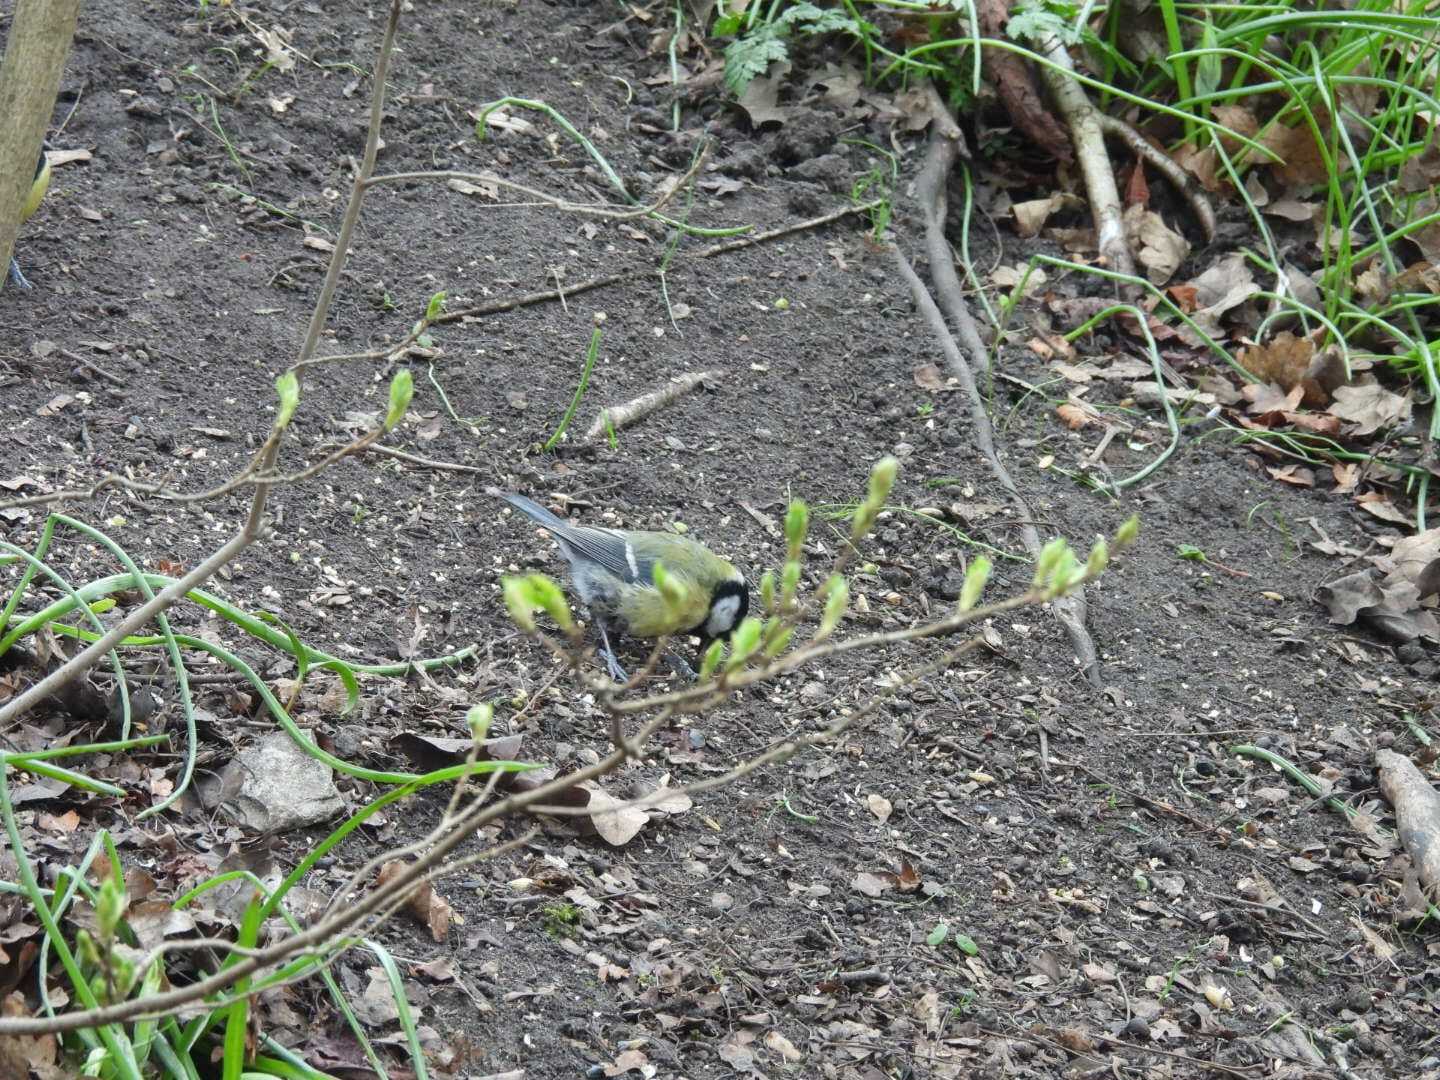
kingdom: Animalia
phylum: Chordata
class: Aves
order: Passeriformes
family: Paridae
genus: Parus
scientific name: Parus major
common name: Great tit
